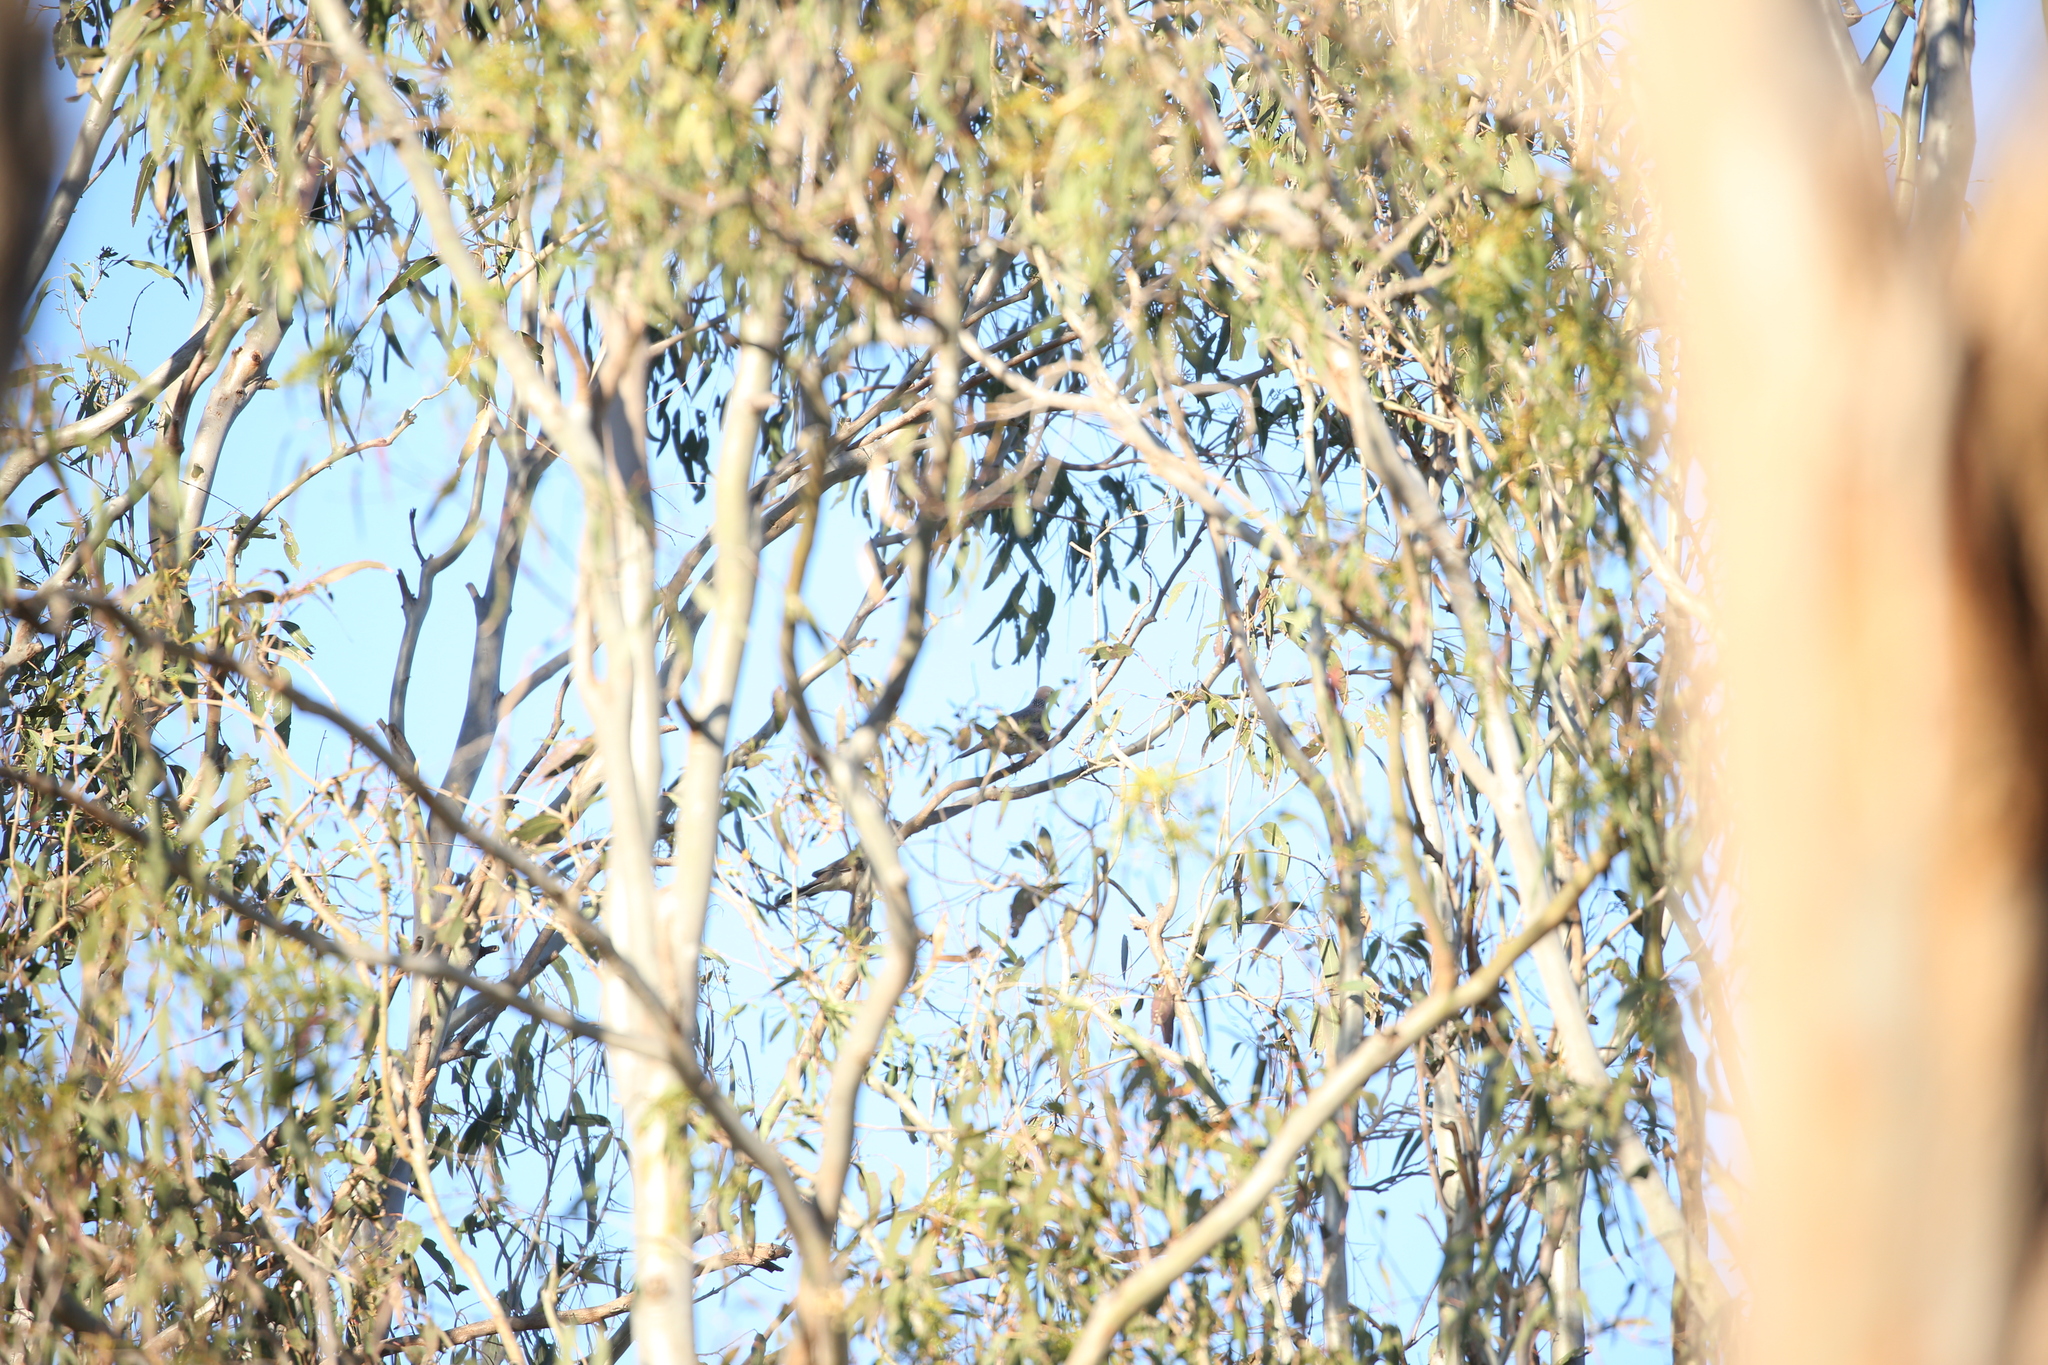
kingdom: Animalia
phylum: Chordata
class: Aves
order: Columbiformes
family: Columbidae
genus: Spilopelia
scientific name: Spilopelia chinensis
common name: Spotted dove
